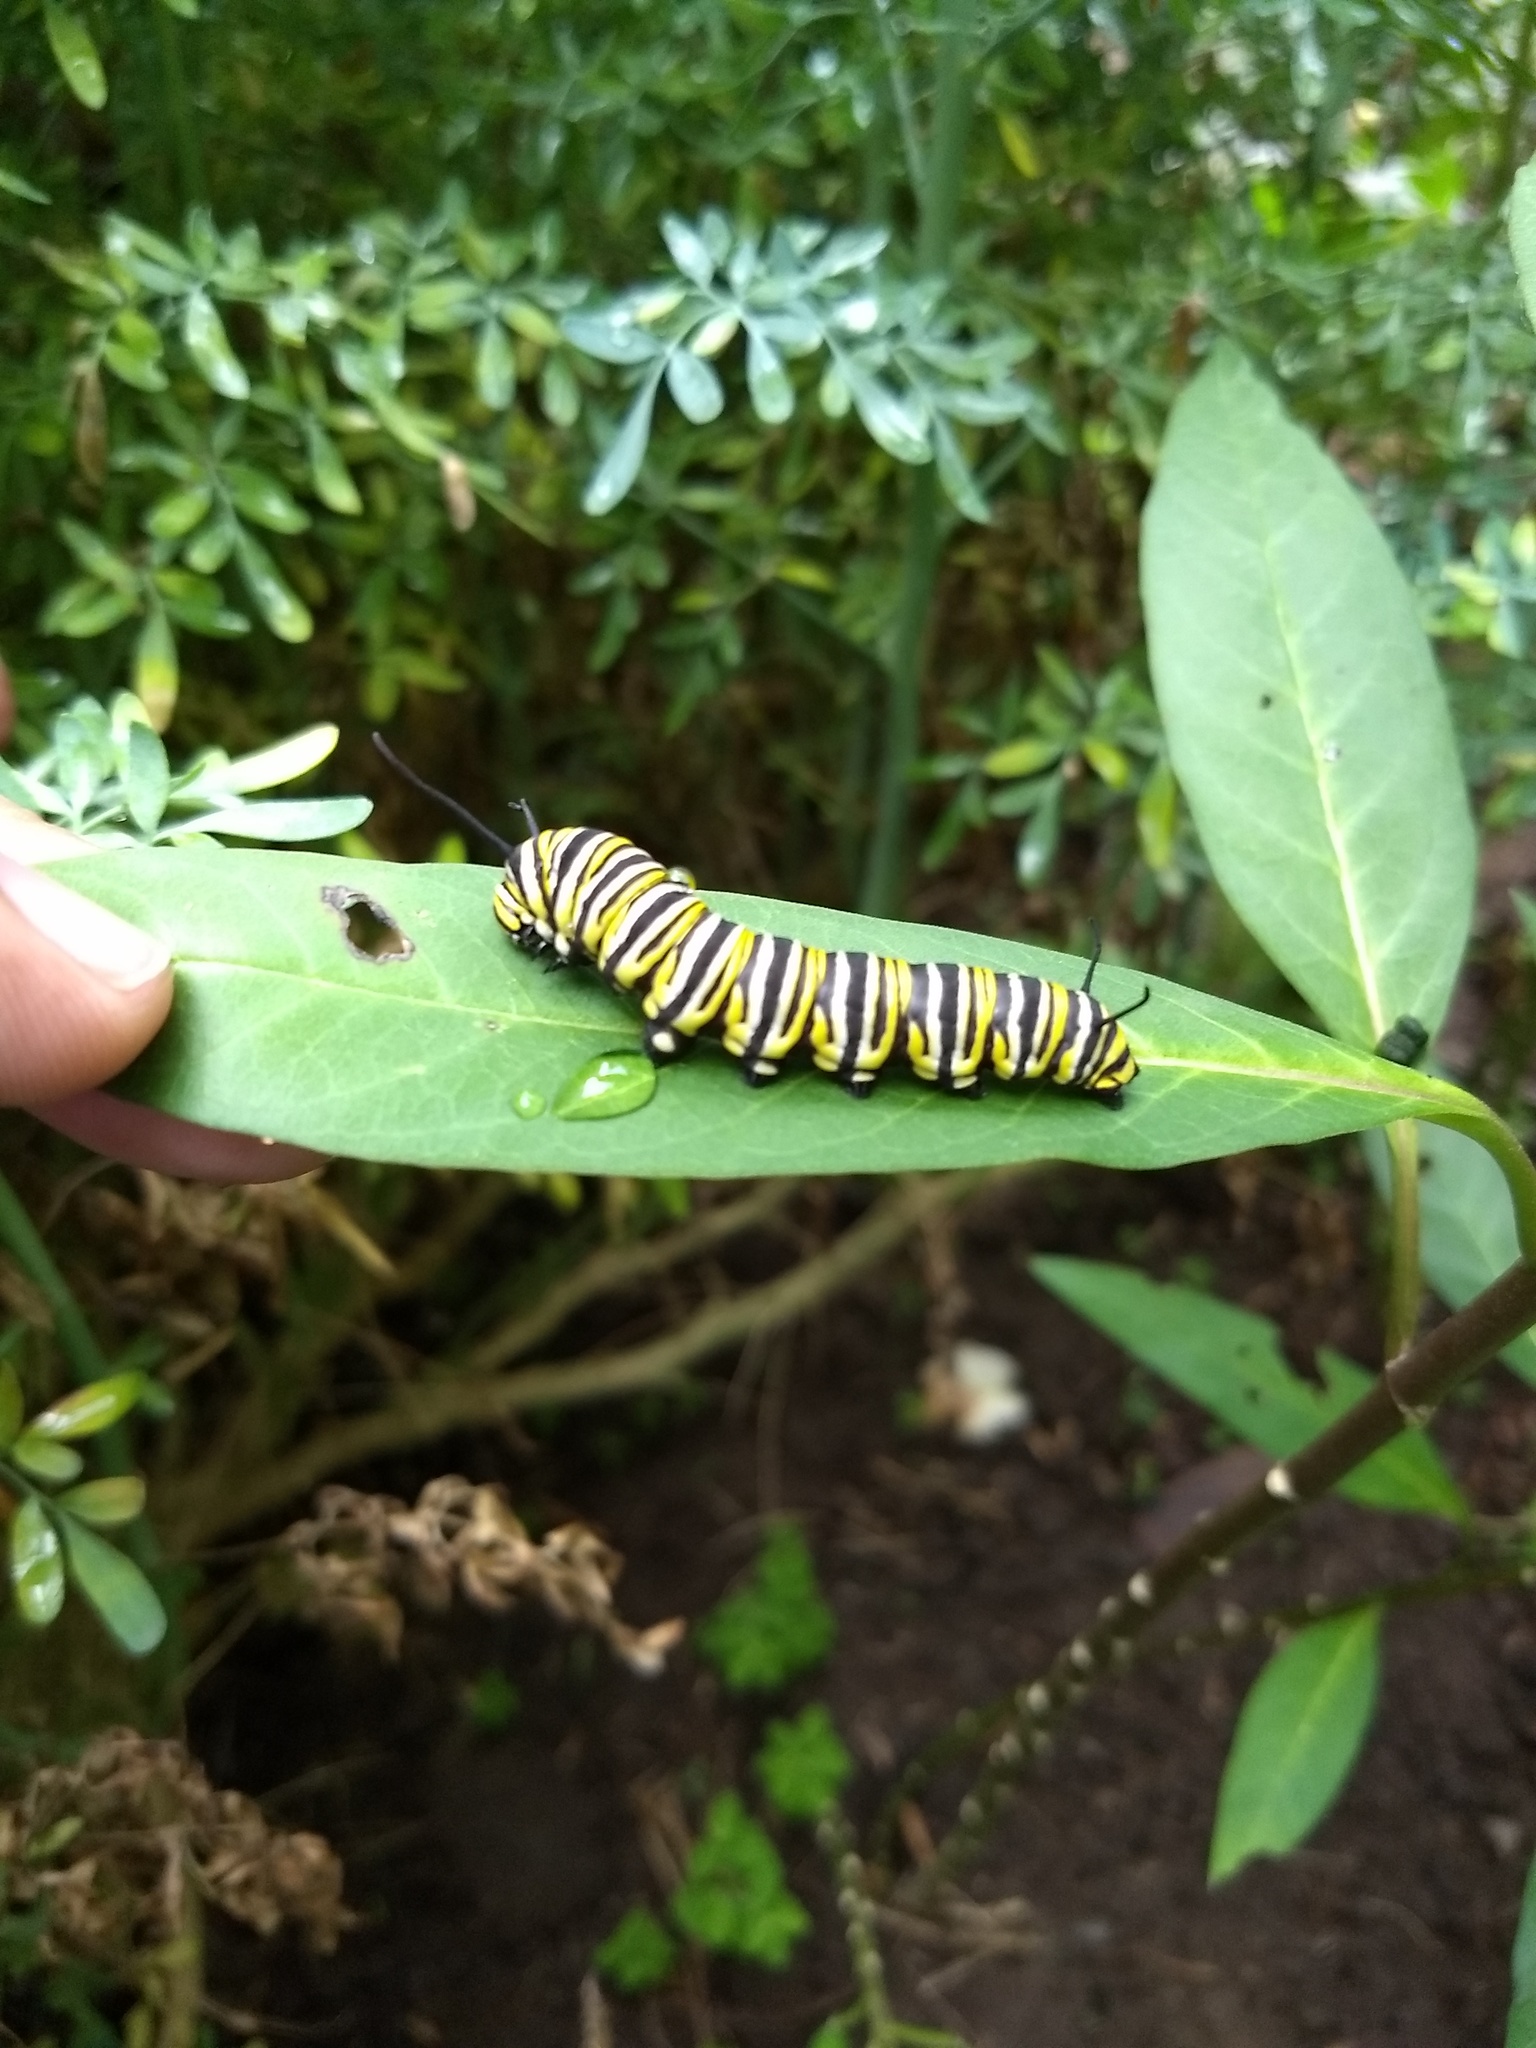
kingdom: Animalia
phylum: Arthropoda
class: Insecta
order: Lepidoptera
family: Nymphalidae
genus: Danaus
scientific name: Danaus plexippus
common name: Monarch
